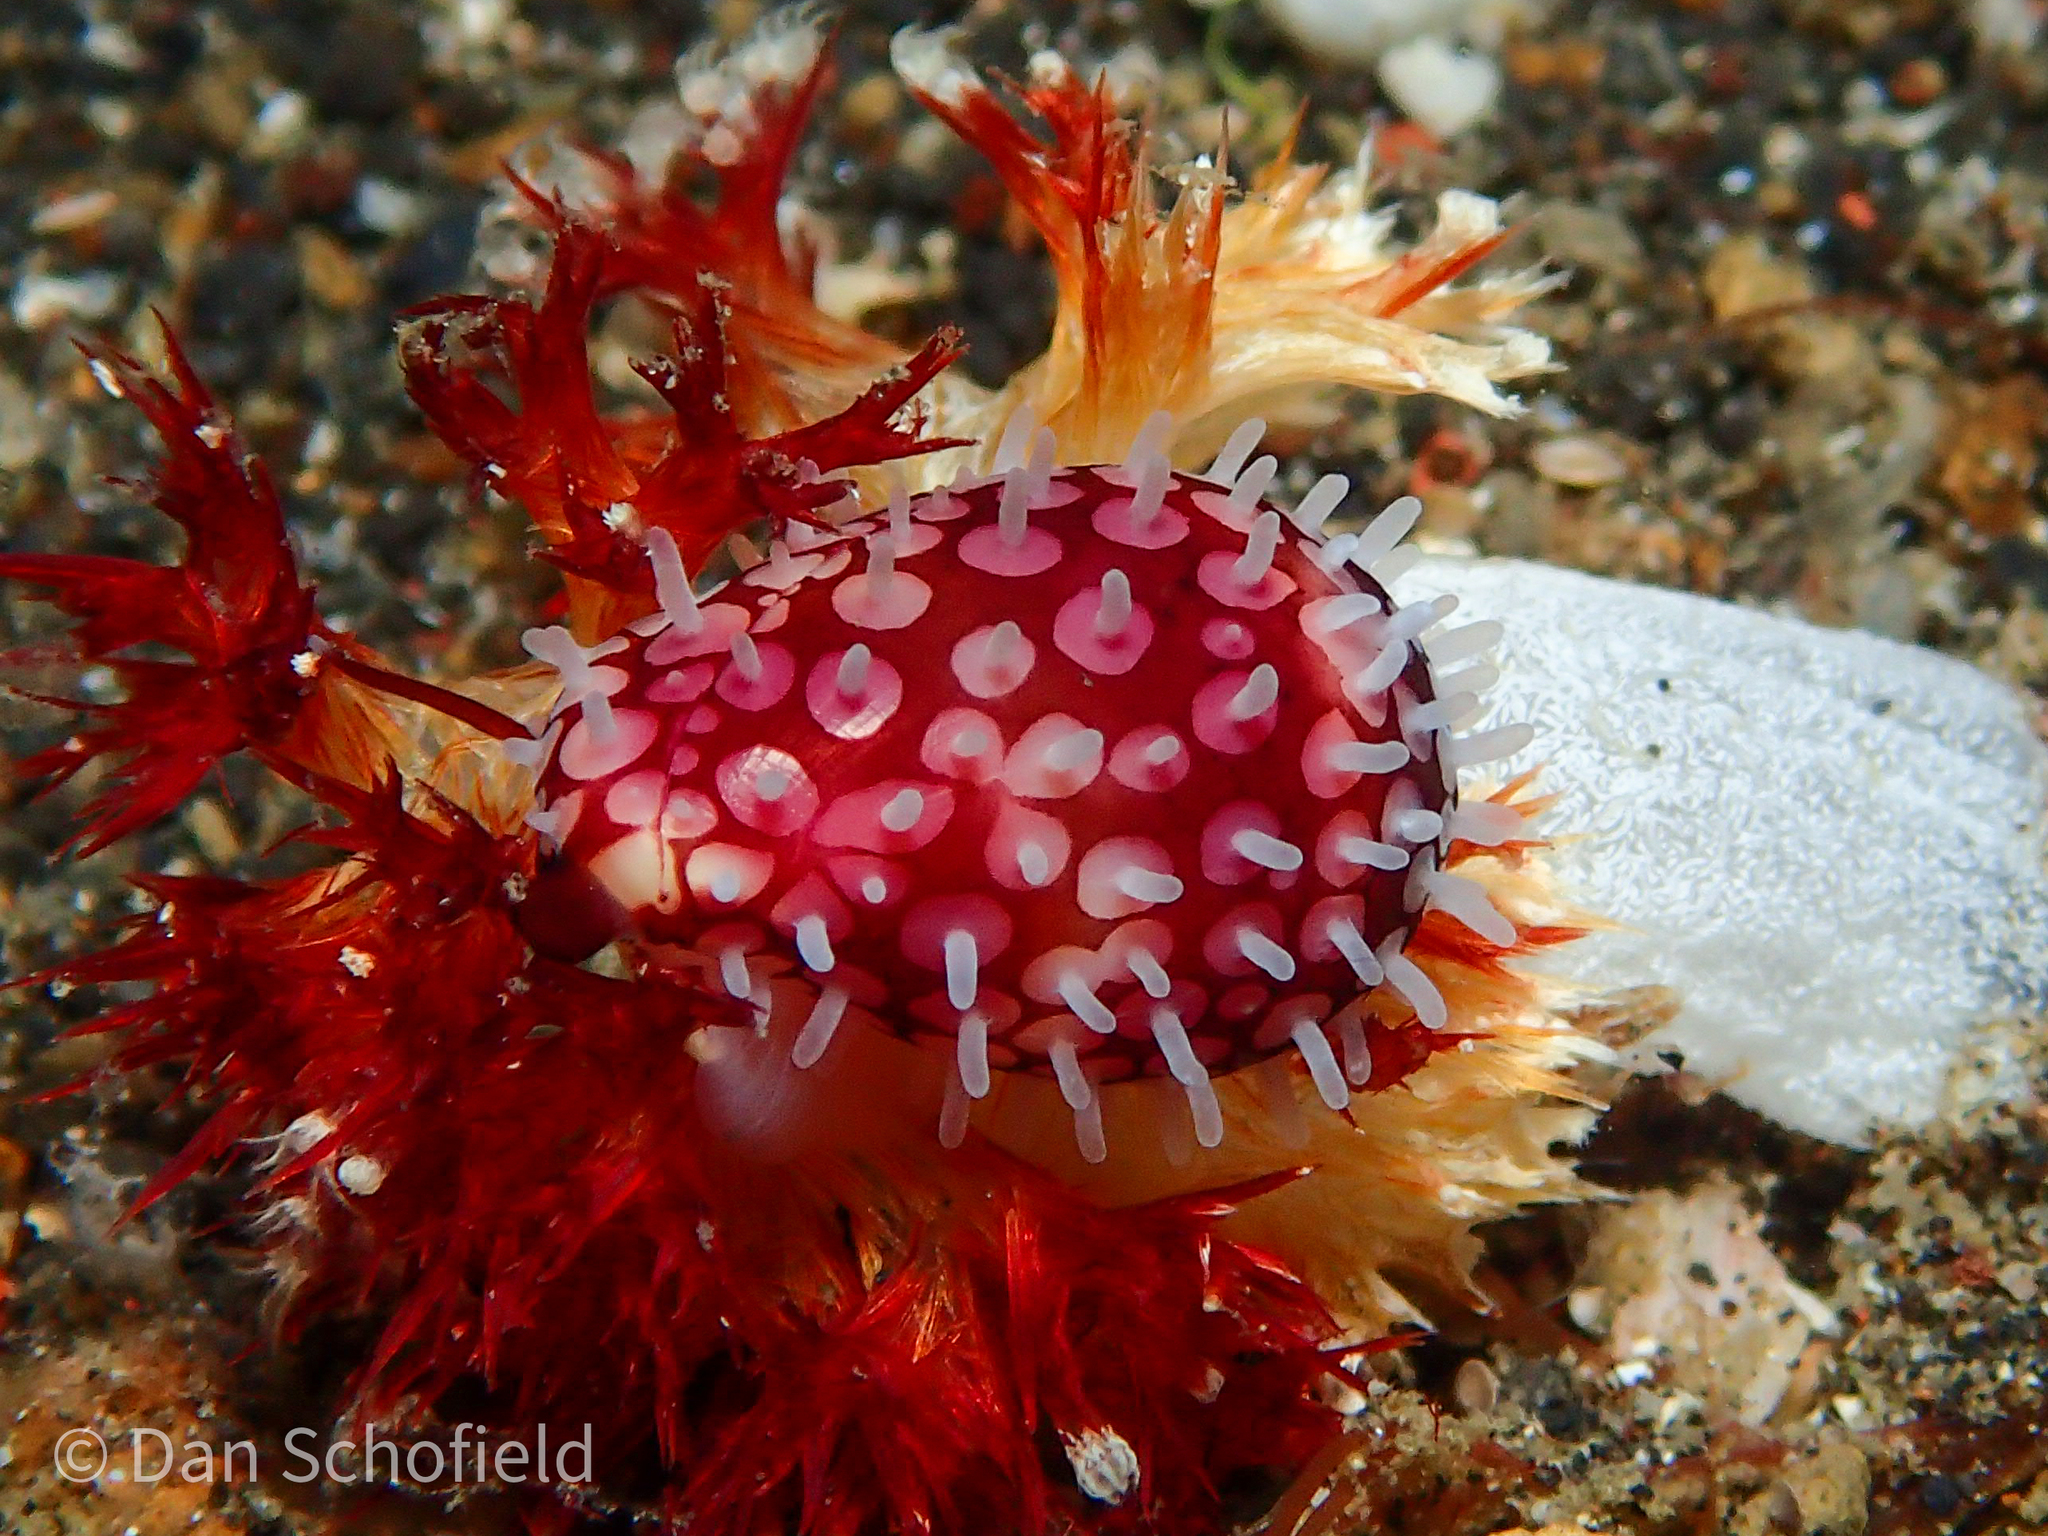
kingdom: Animalia
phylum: Mollusca
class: Gastropoda
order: Littorinimorpha
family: Ovulidae
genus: Prionovolva
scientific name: Prionovolva brevis
